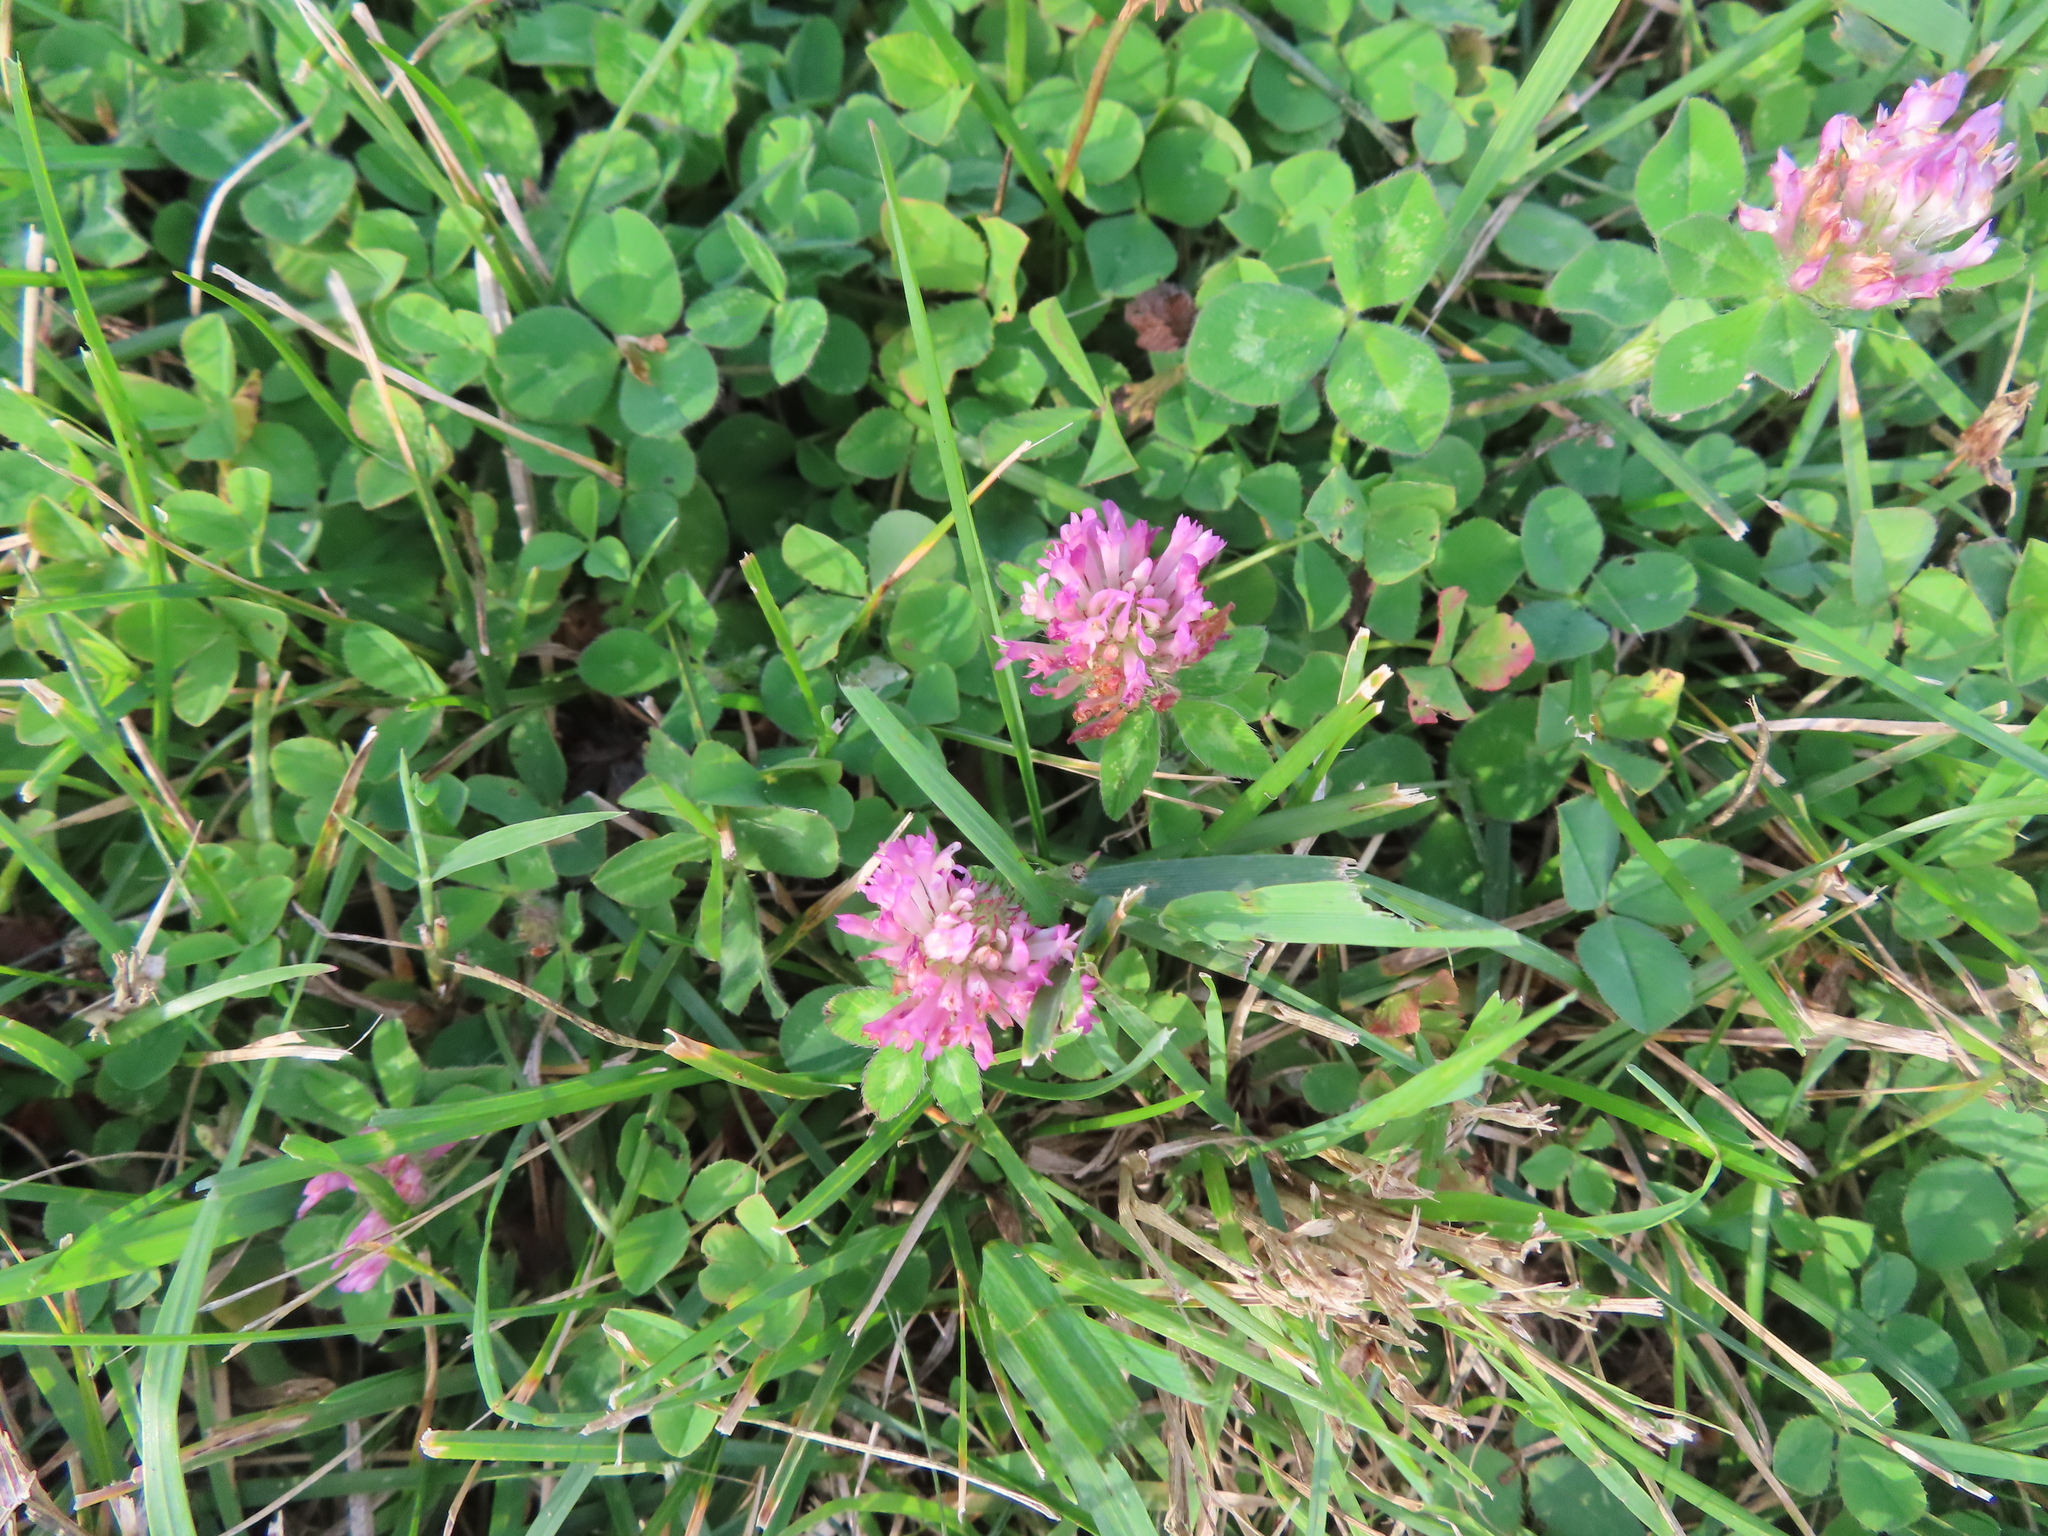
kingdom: Plantae
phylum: Tracheophyta
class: Magnoliopsida
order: Fabales
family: Fabaceae
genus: Trifolium
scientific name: Trifolium pratense
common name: Red clover
